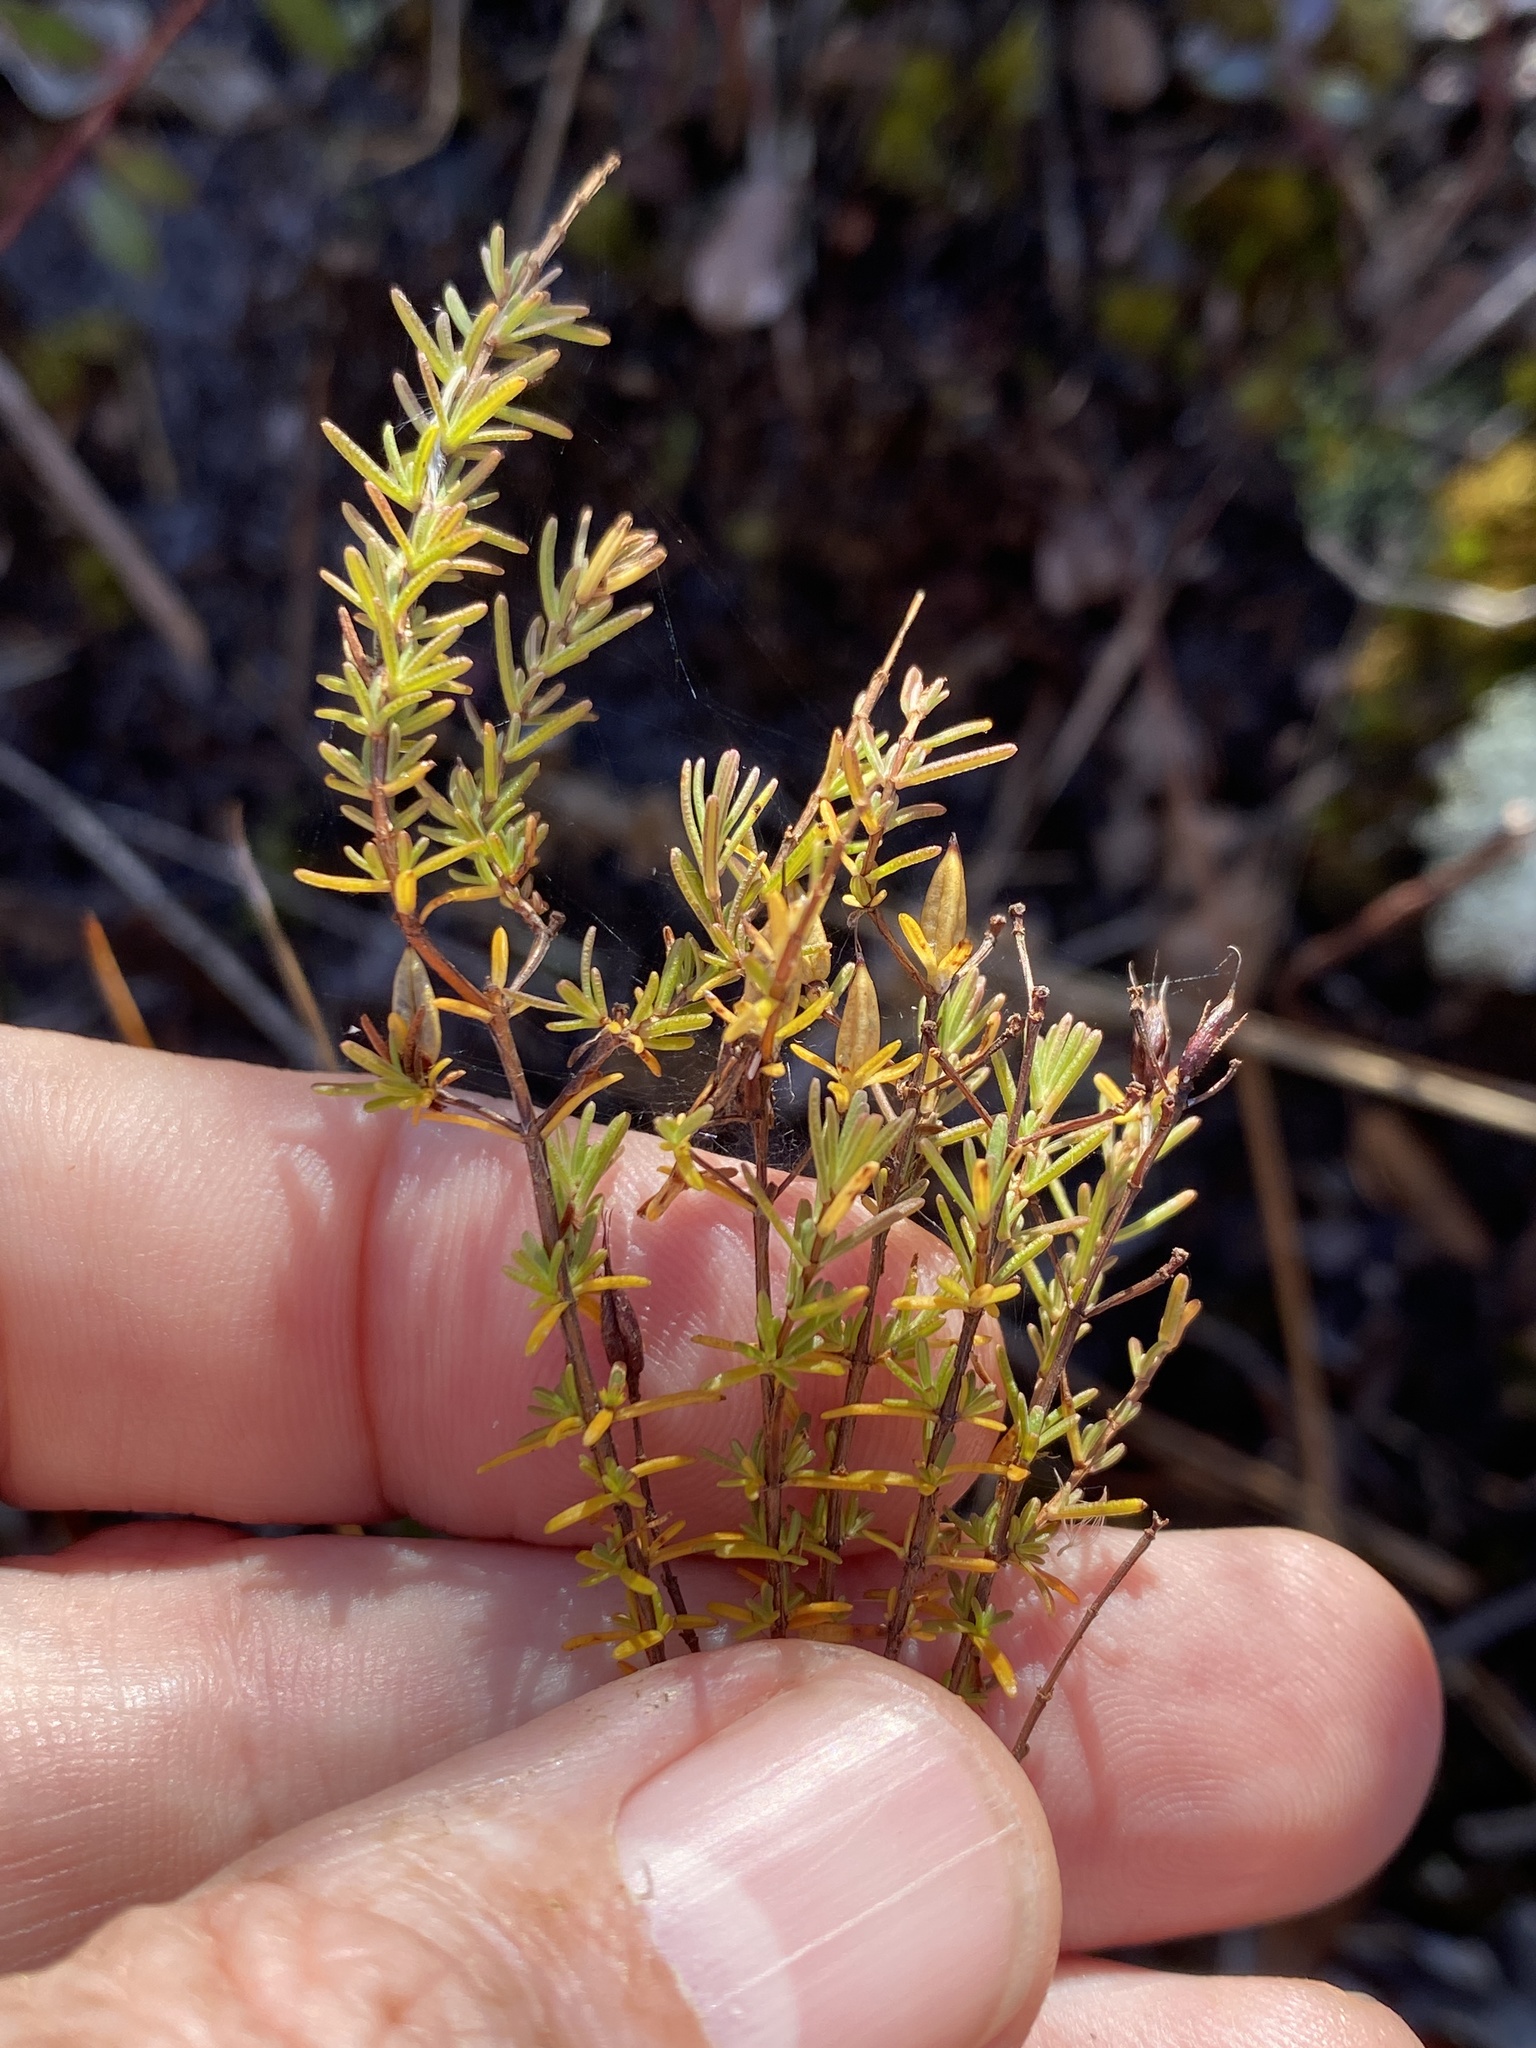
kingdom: Plantae
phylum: Tracheophyta
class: Magnoliopsida
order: Malpighiales
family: Hypericaceae
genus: Hypericum
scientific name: Hypericum tenuifolium
